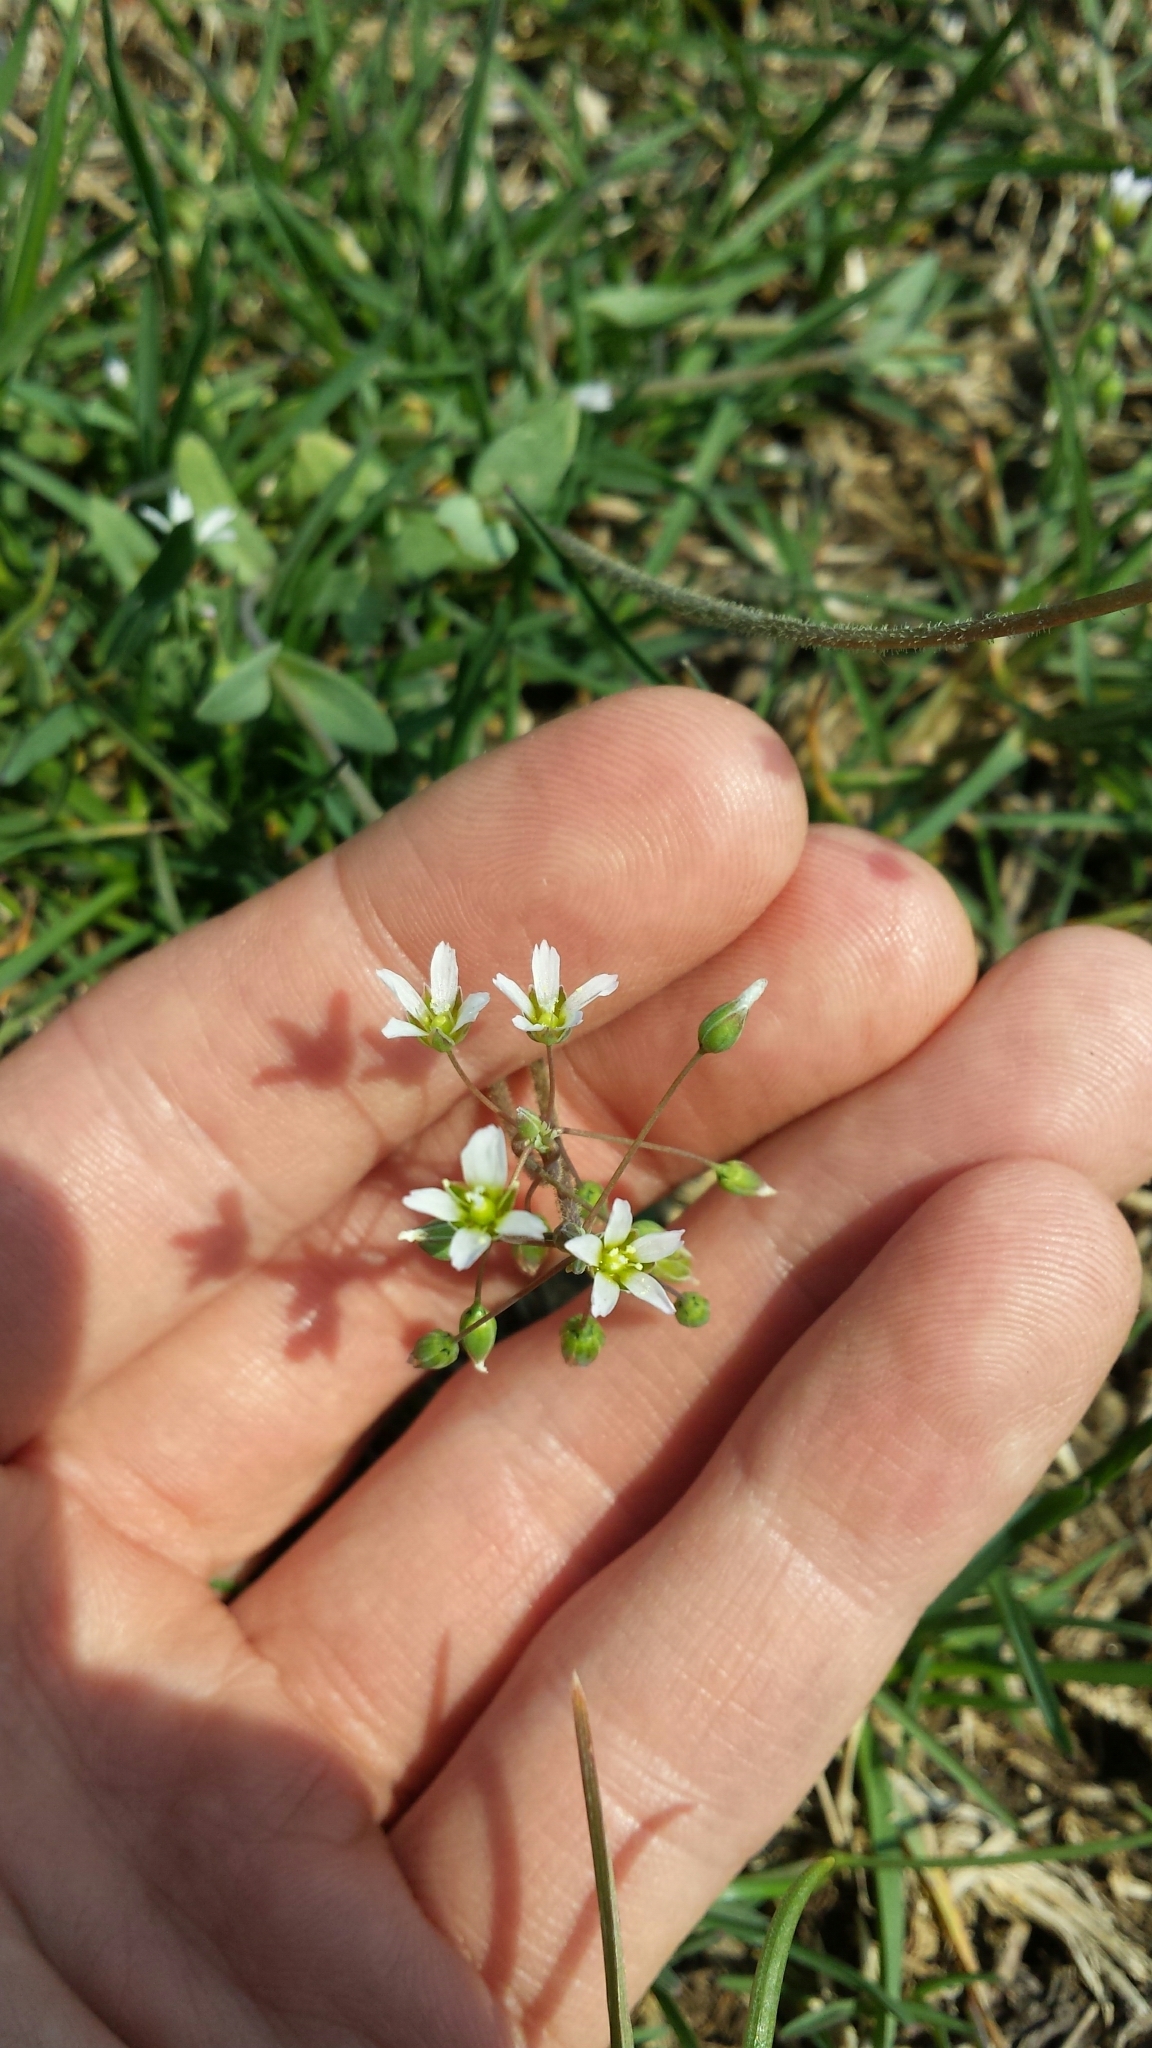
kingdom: Plantae
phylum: Tracheophyta
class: Magnoliopsida
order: Caryophyllales
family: Caryophyllaceae
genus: Holosteum
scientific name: Holosteum umbellatum
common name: Jagged chickweed
